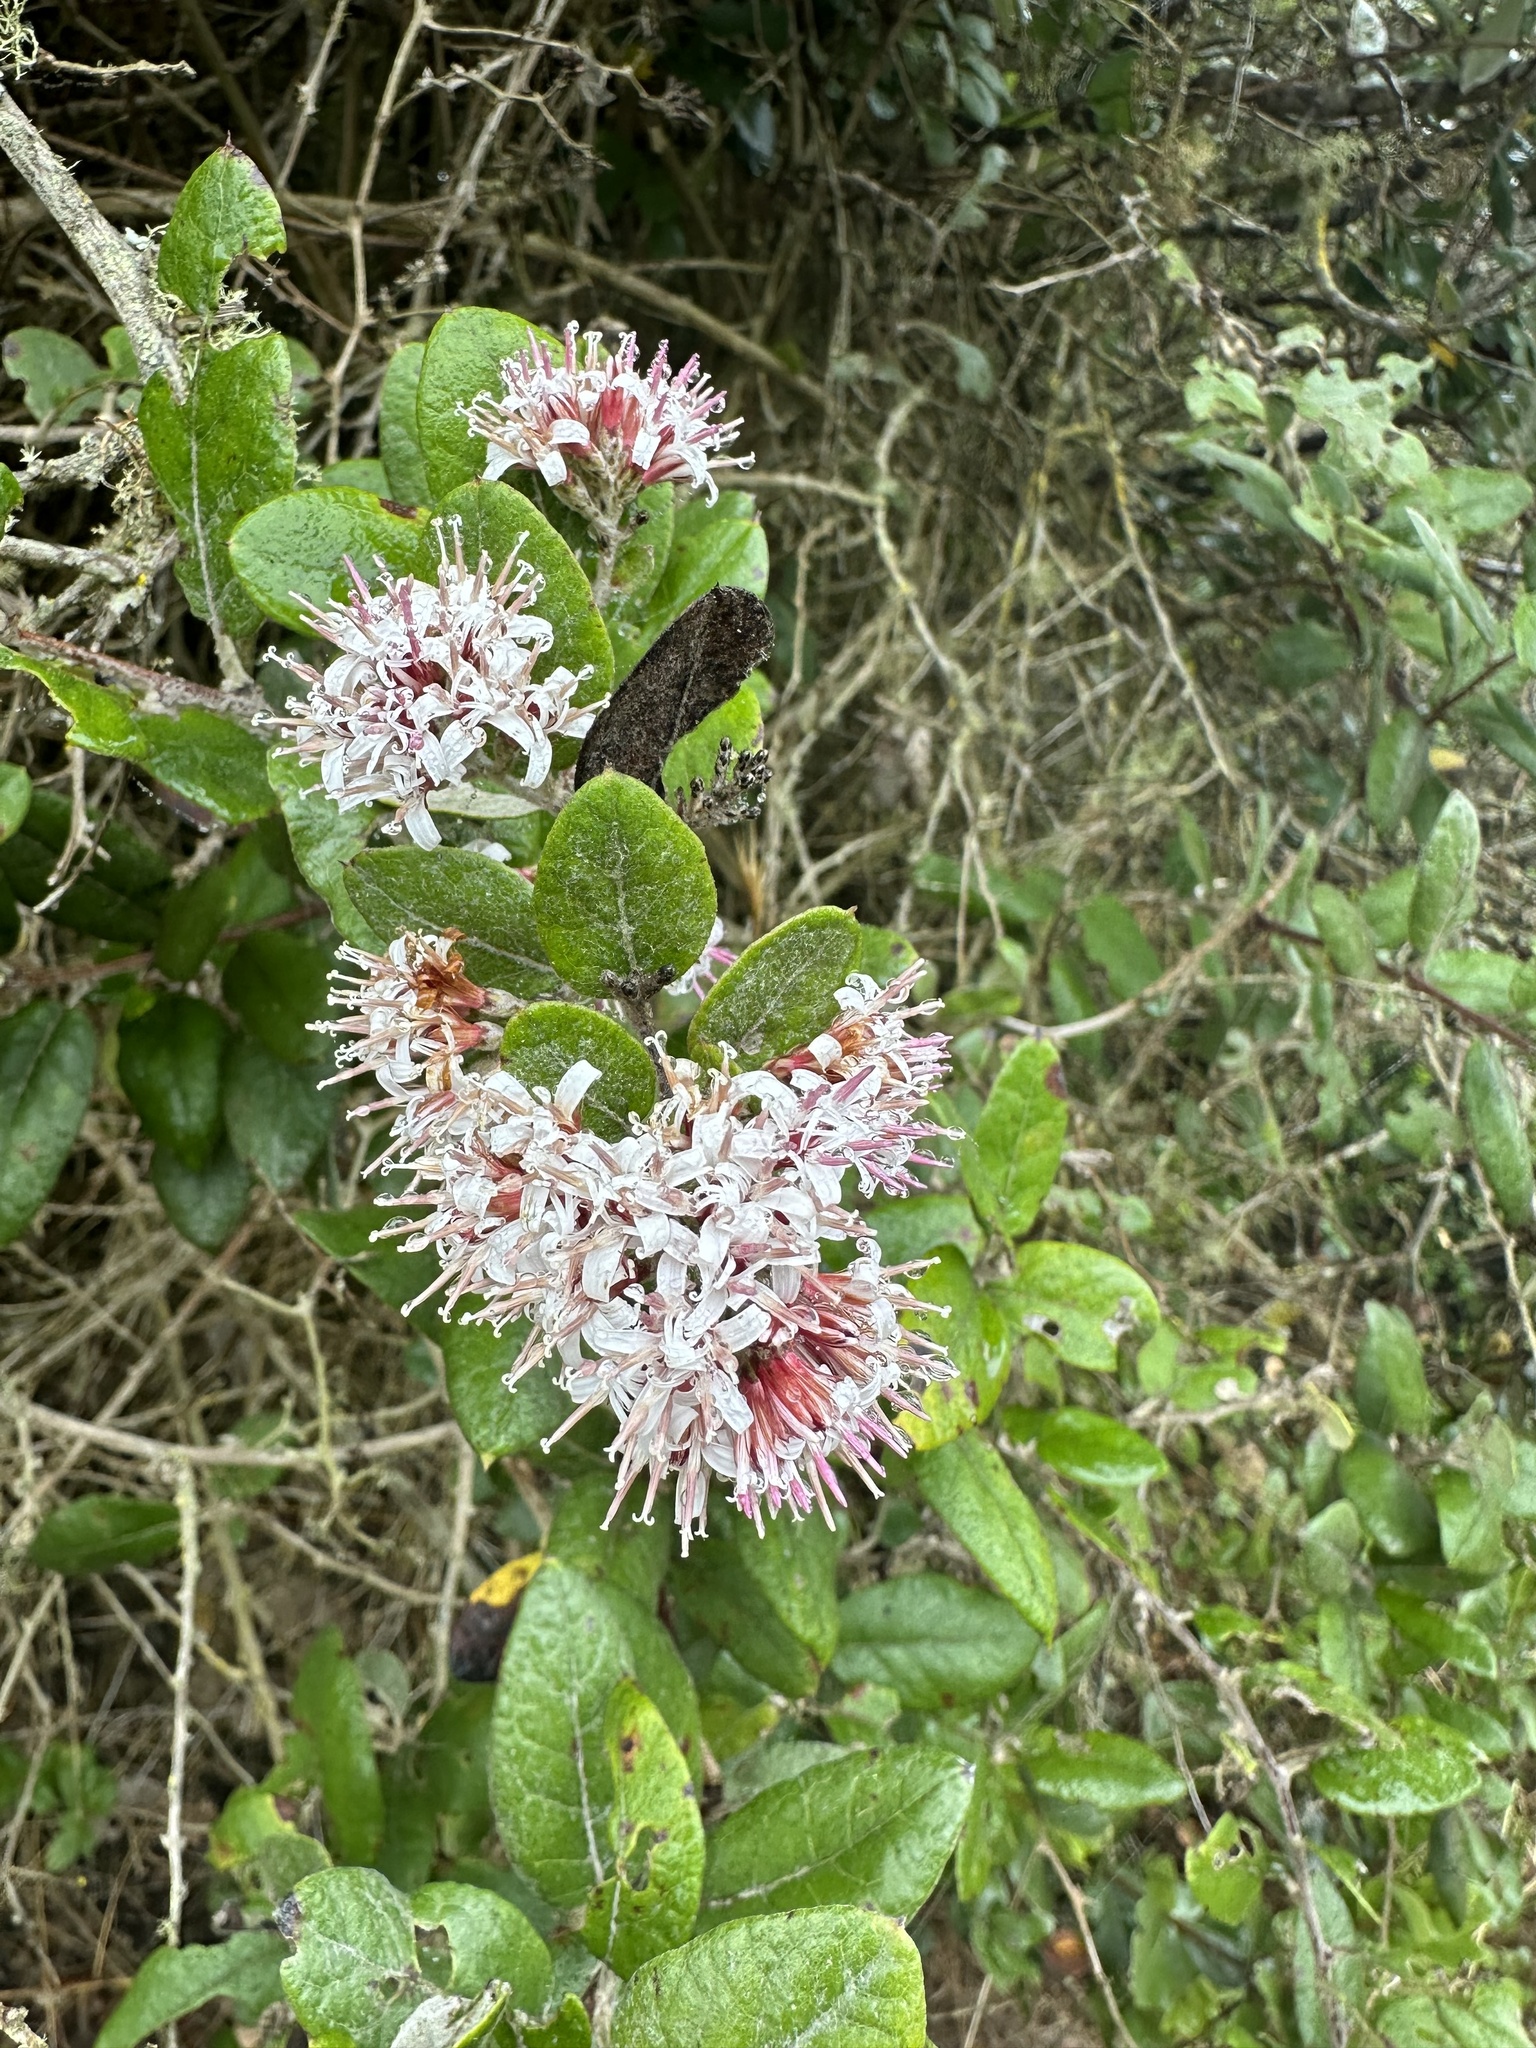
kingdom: Plantae
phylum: Tracheophyta
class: Magnoliopsida
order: Asterales
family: Asteraceae
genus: Proustia
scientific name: Proustia pyrifolia
